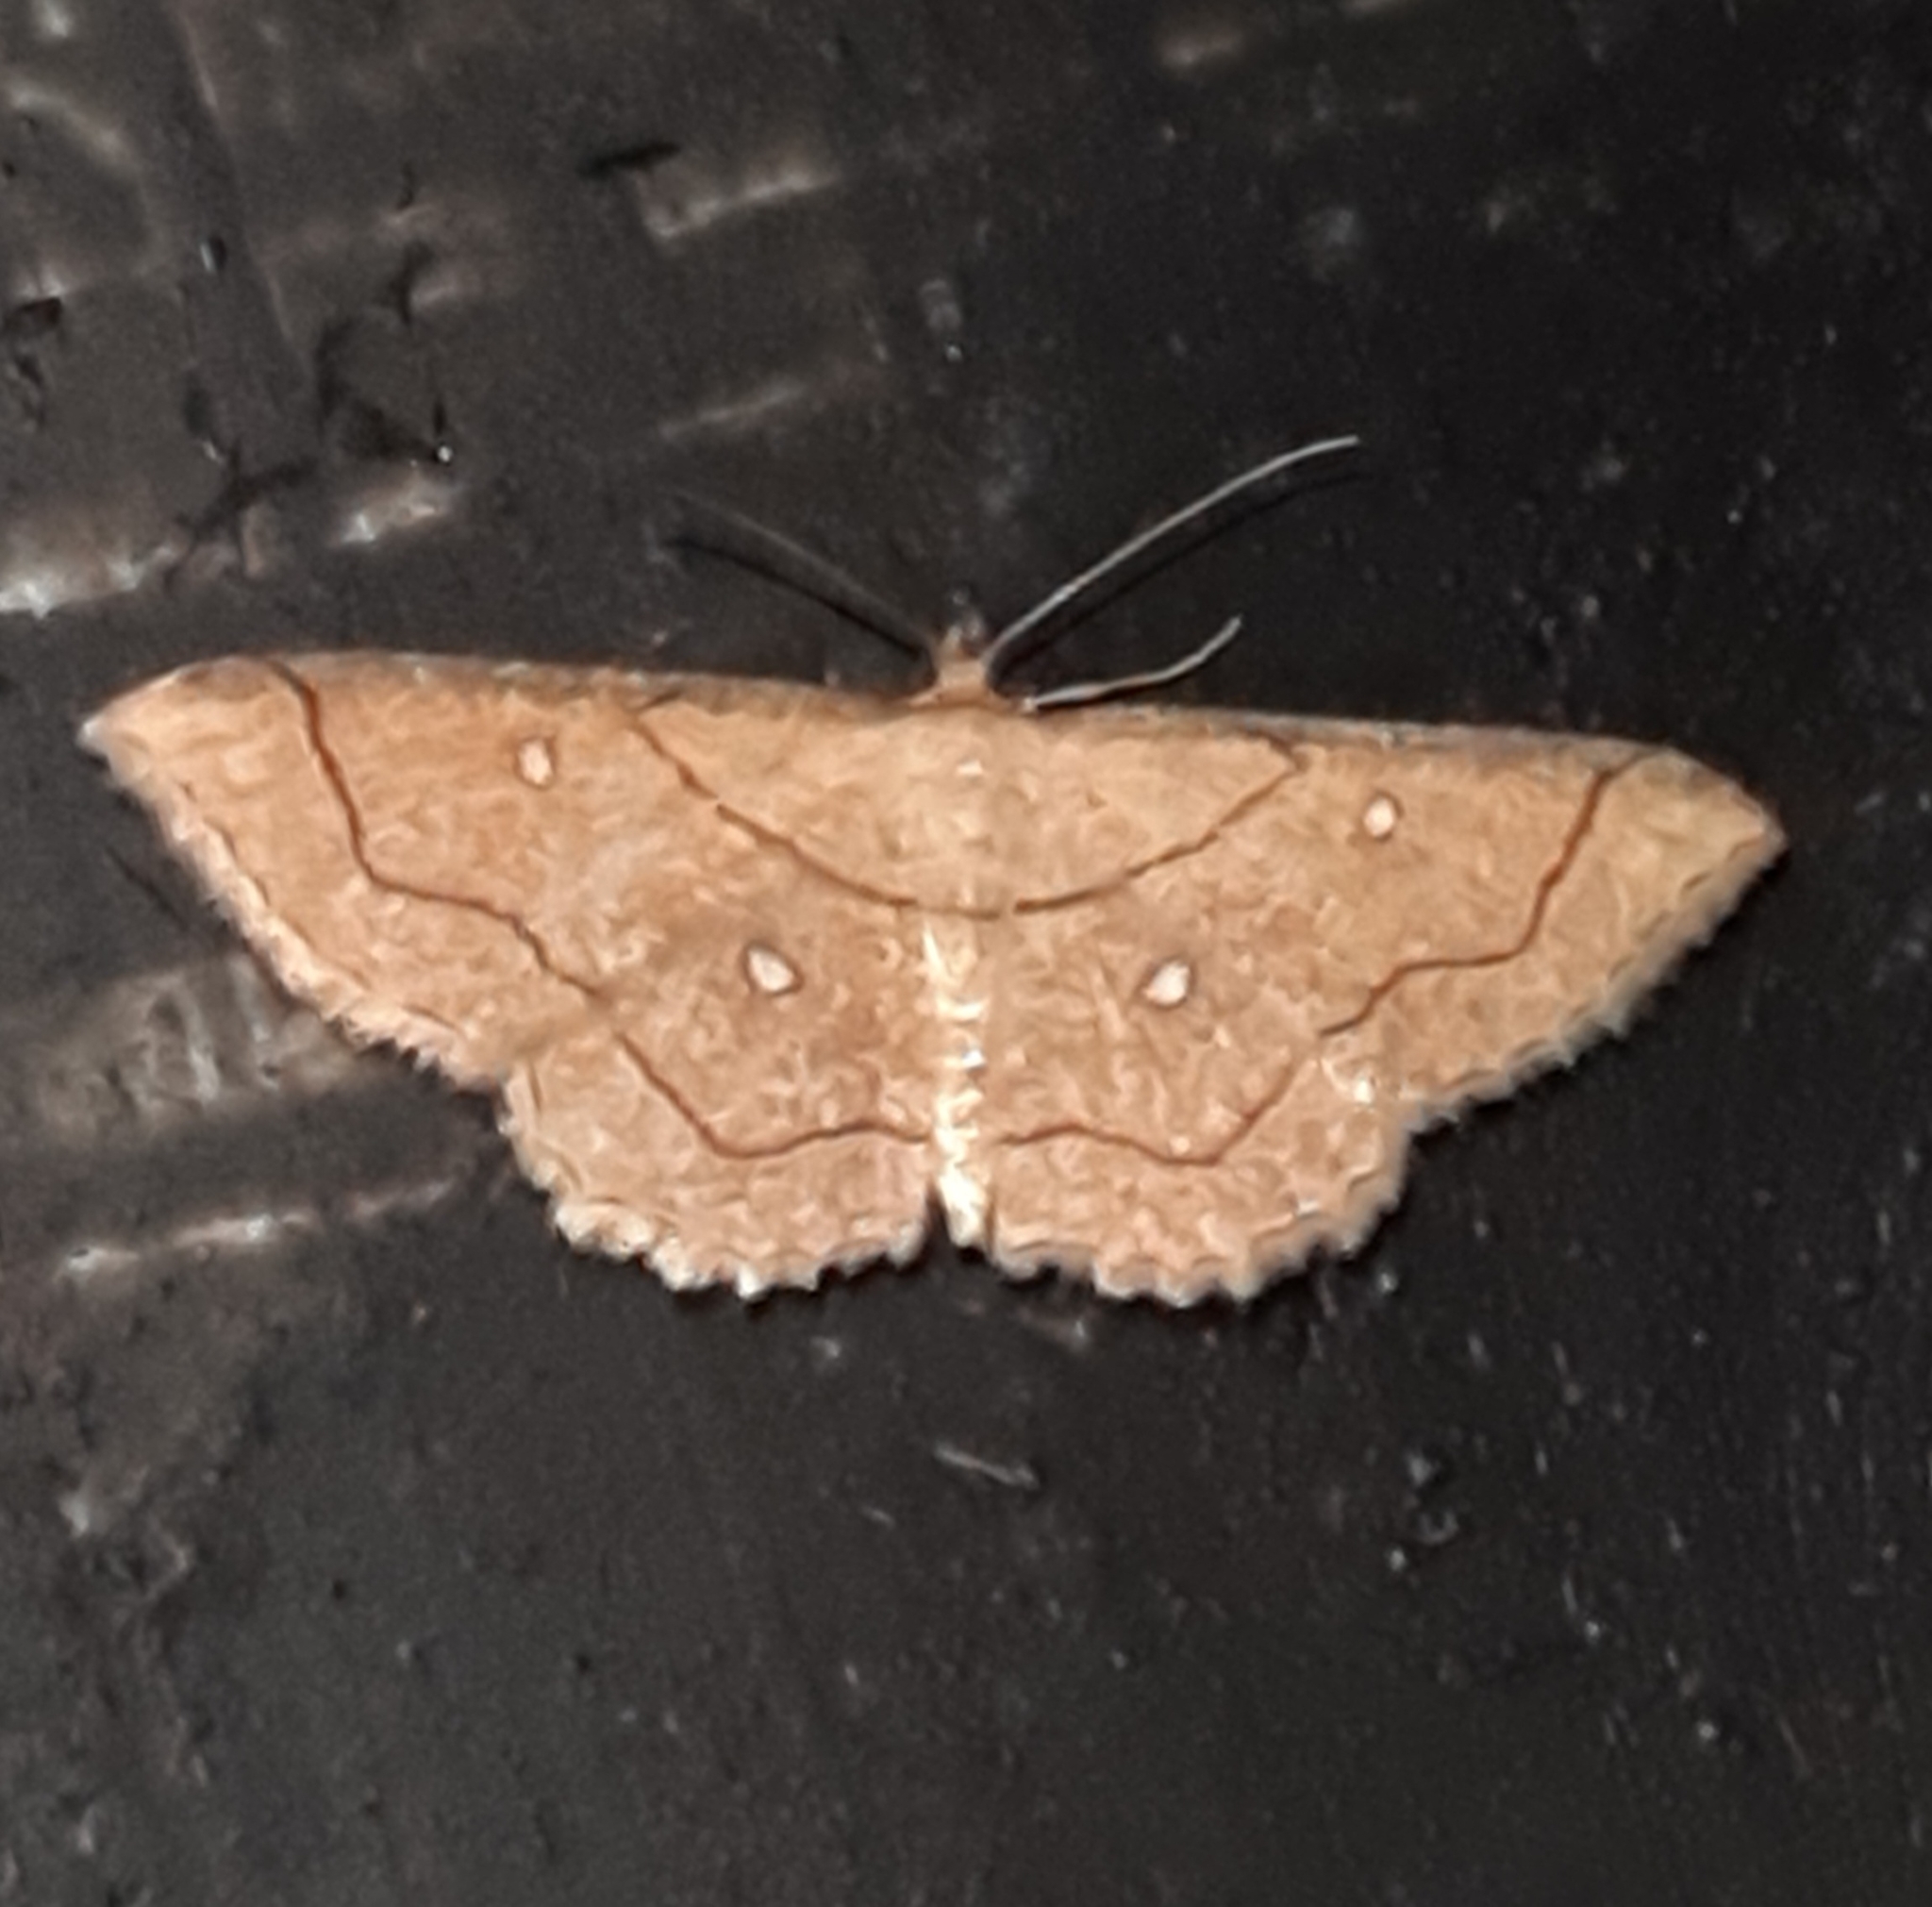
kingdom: Animalia
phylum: Arthropoda
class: Insecta
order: Lepidoptera
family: Geometridae
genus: Cyclophora
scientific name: Cyclophora coecaria
